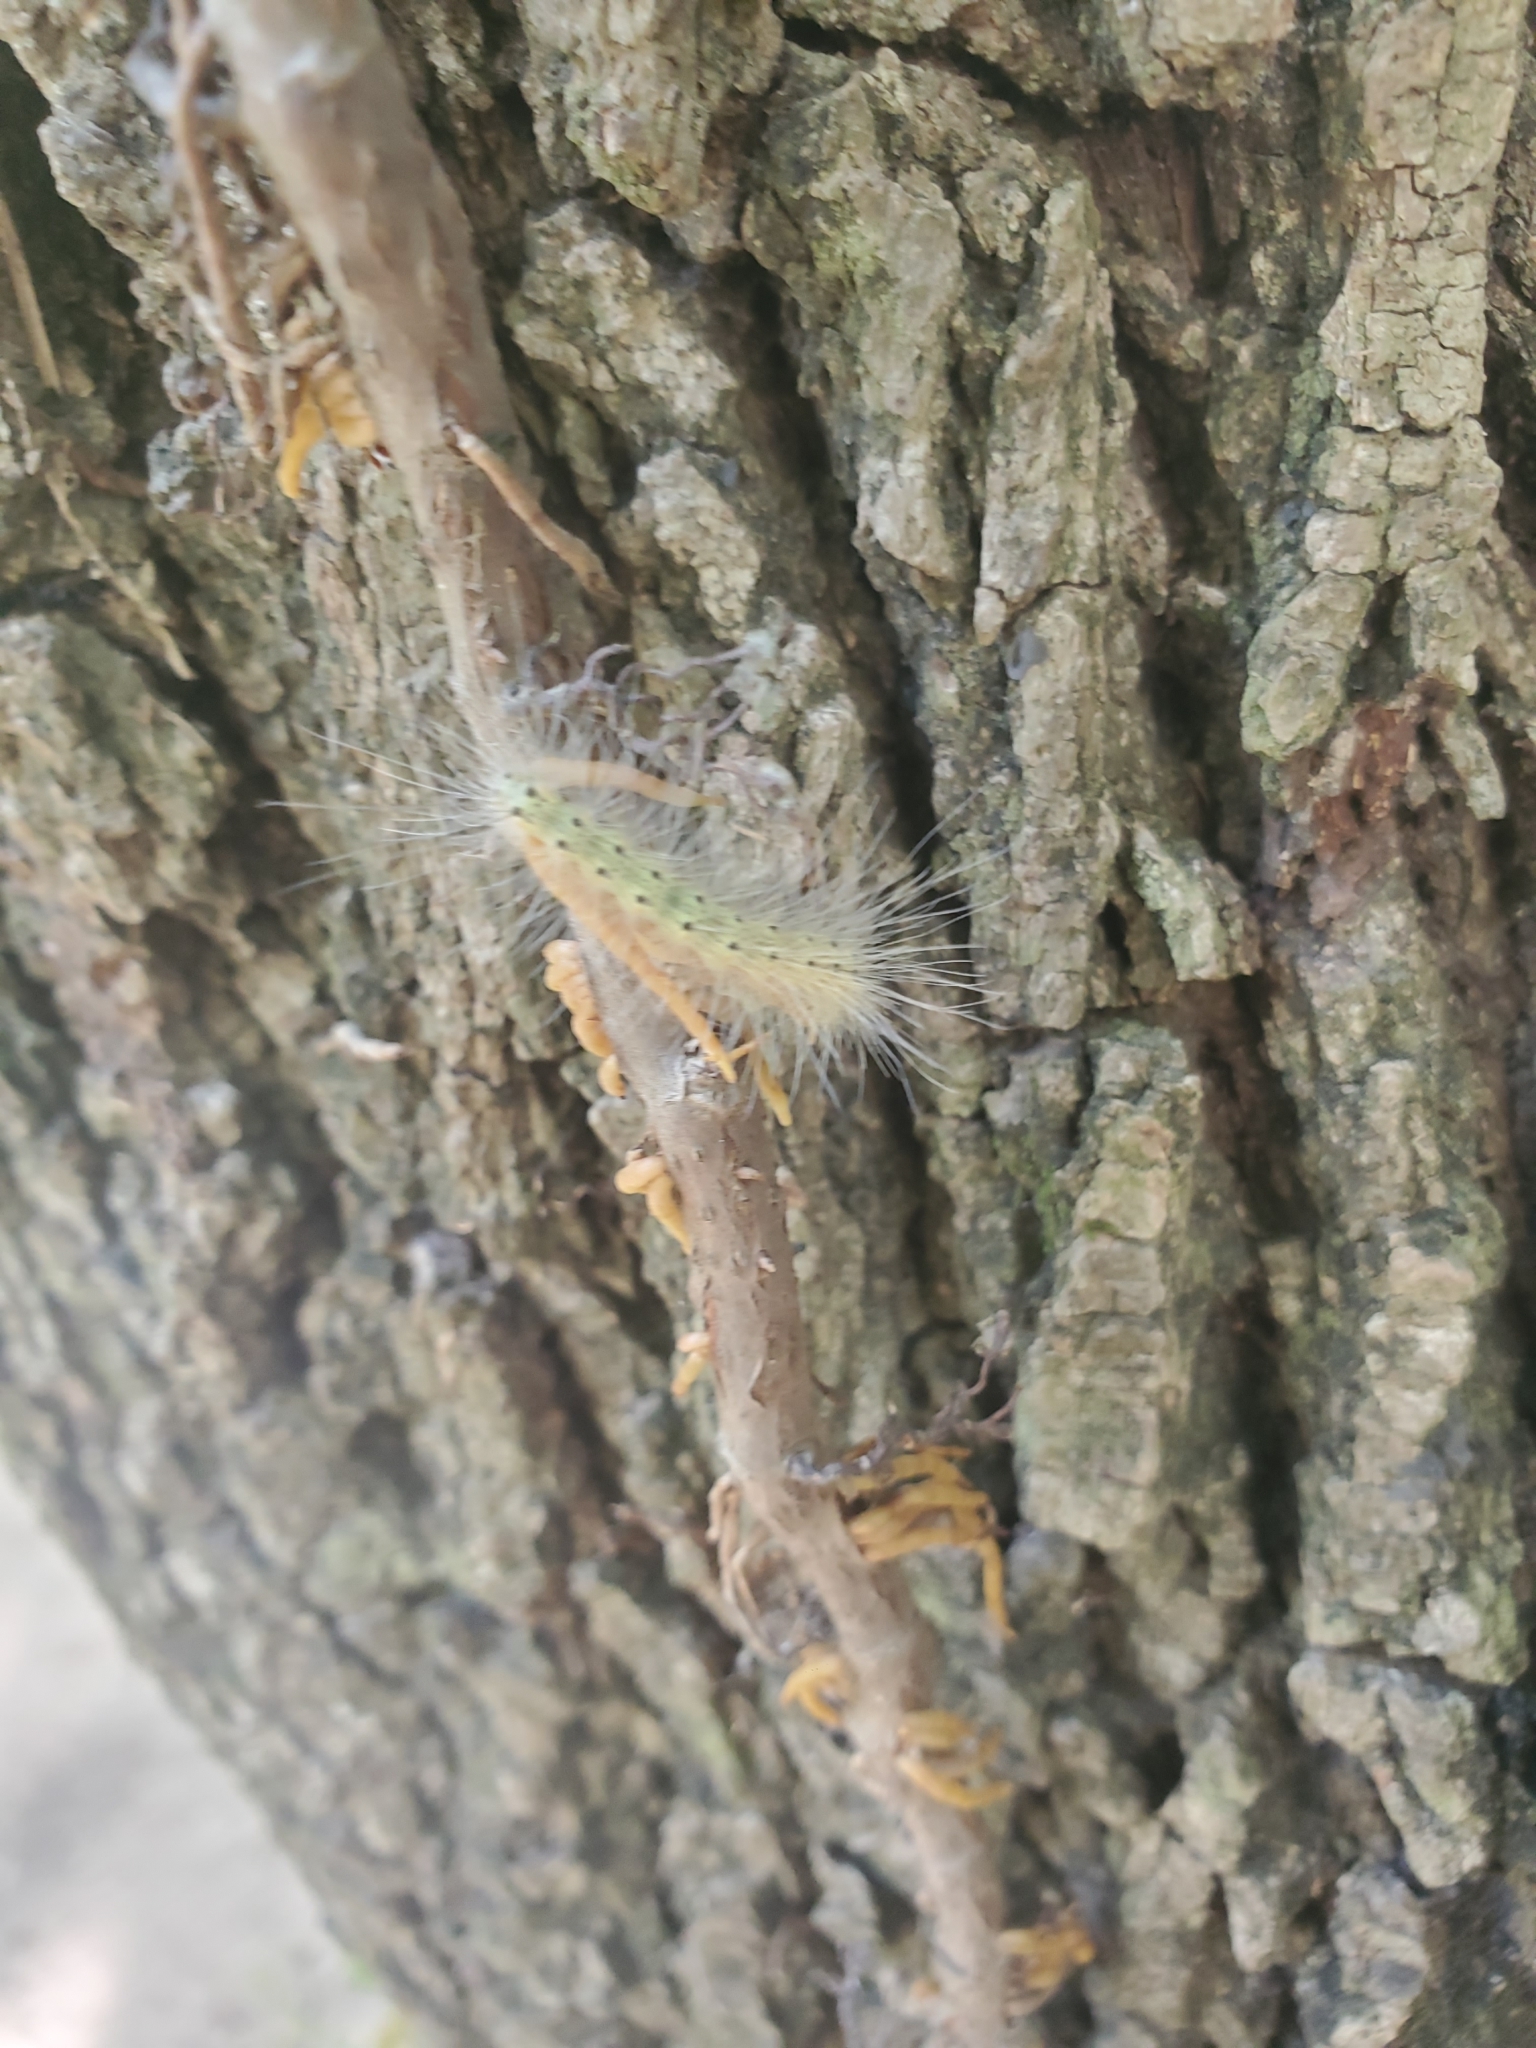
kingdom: Animalia
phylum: Arthropoda
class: Insecta
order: Lepidoptera
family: Erebidae
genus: Hyphantria
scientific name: Hyphantria cunea
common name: American white moth
